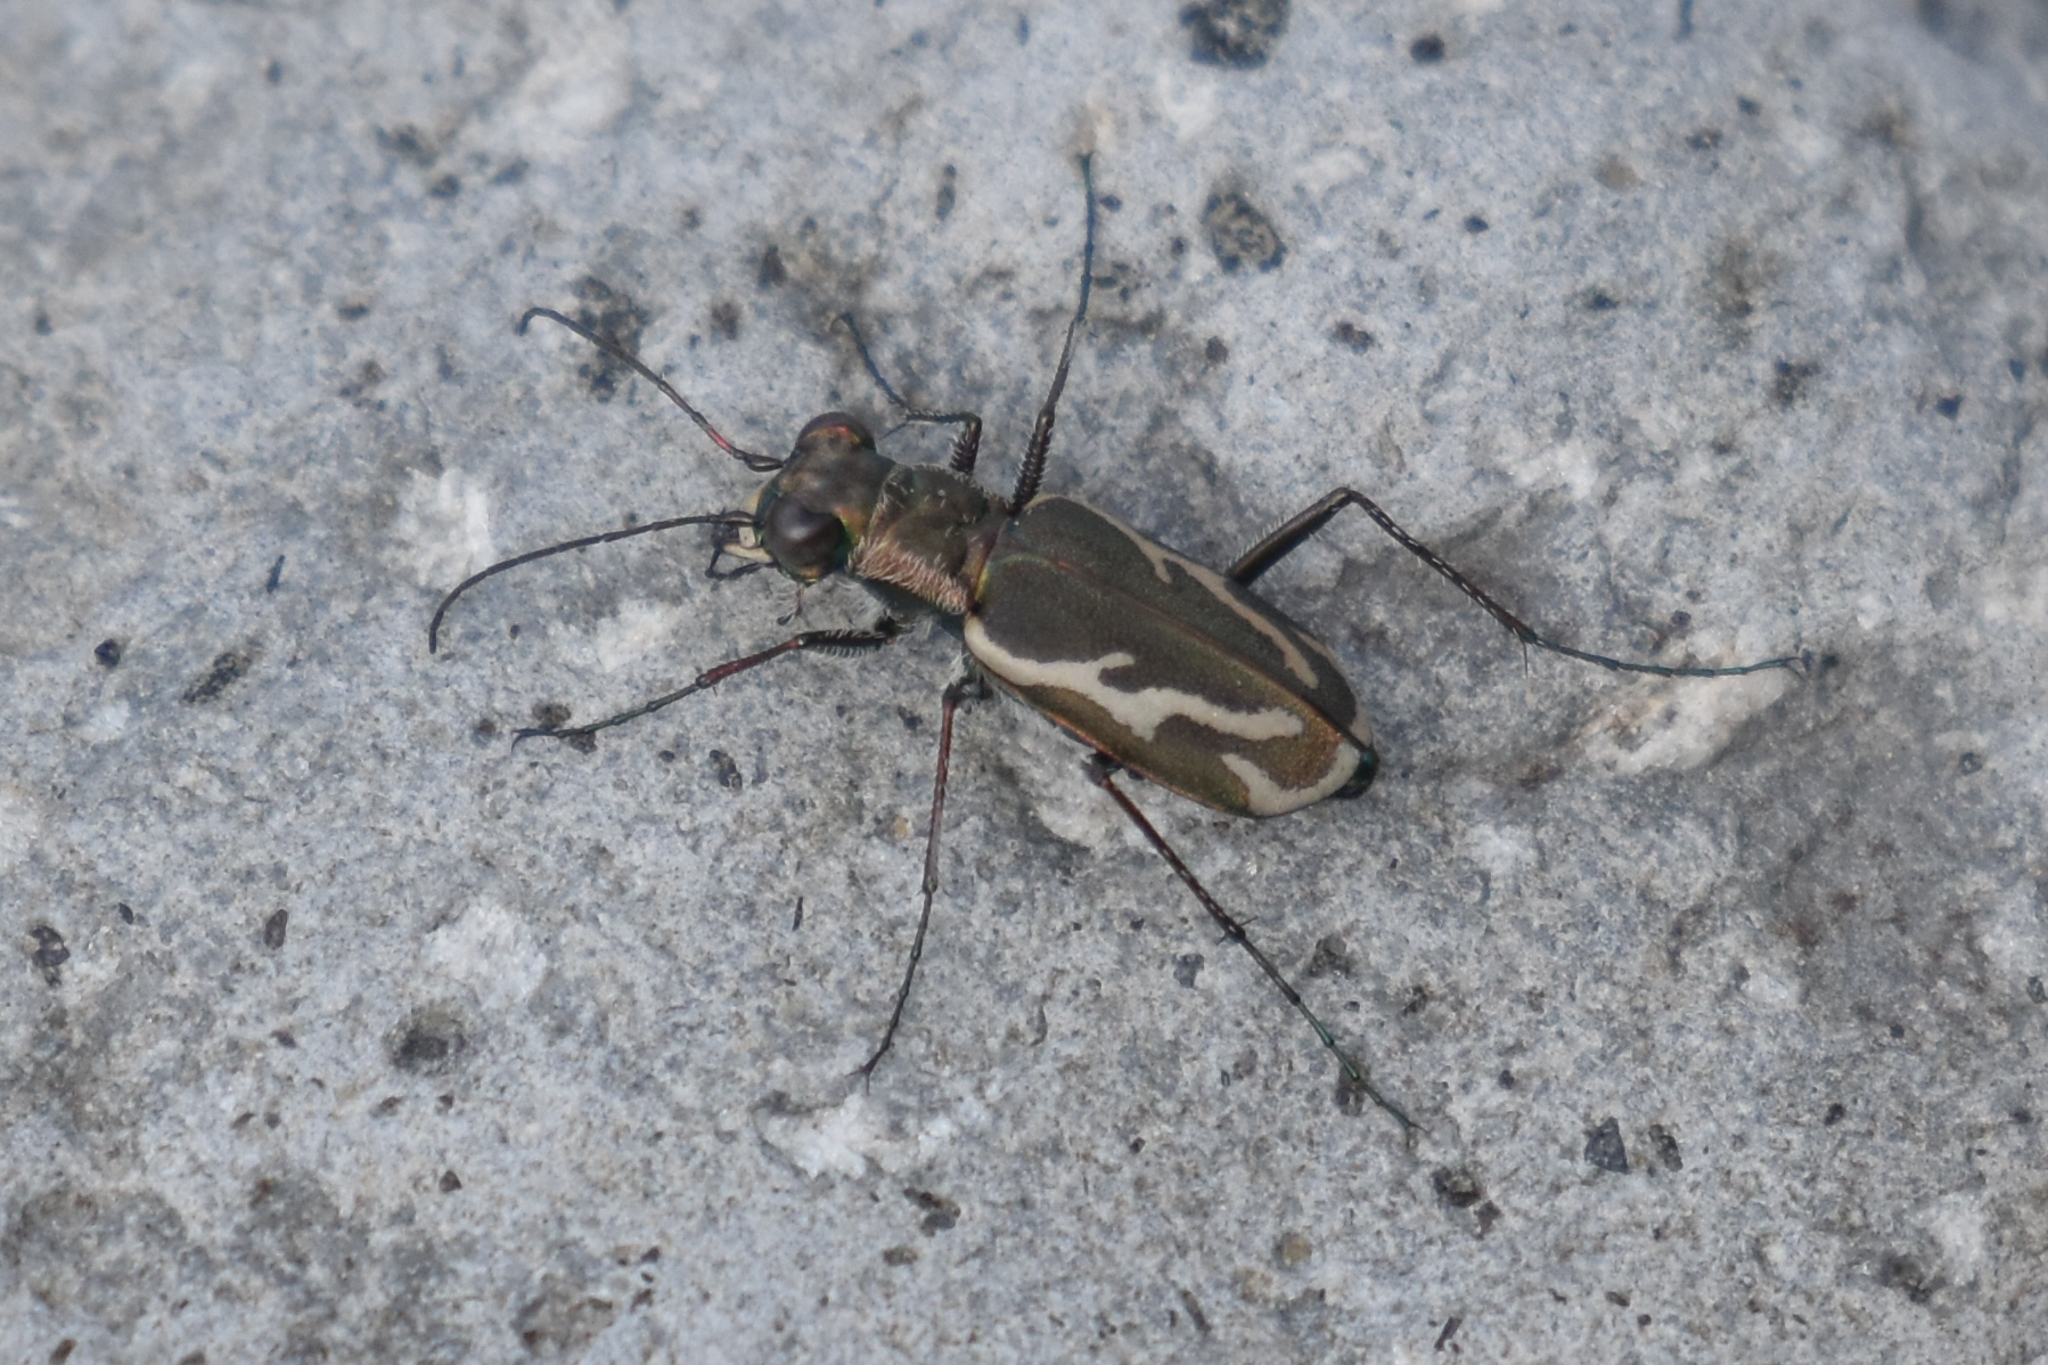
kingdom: Animalia
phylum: Arthropoda
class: Insecta
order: Coleoptera
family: Carabidae
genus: Cylindera
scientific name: Cylindera terricola
